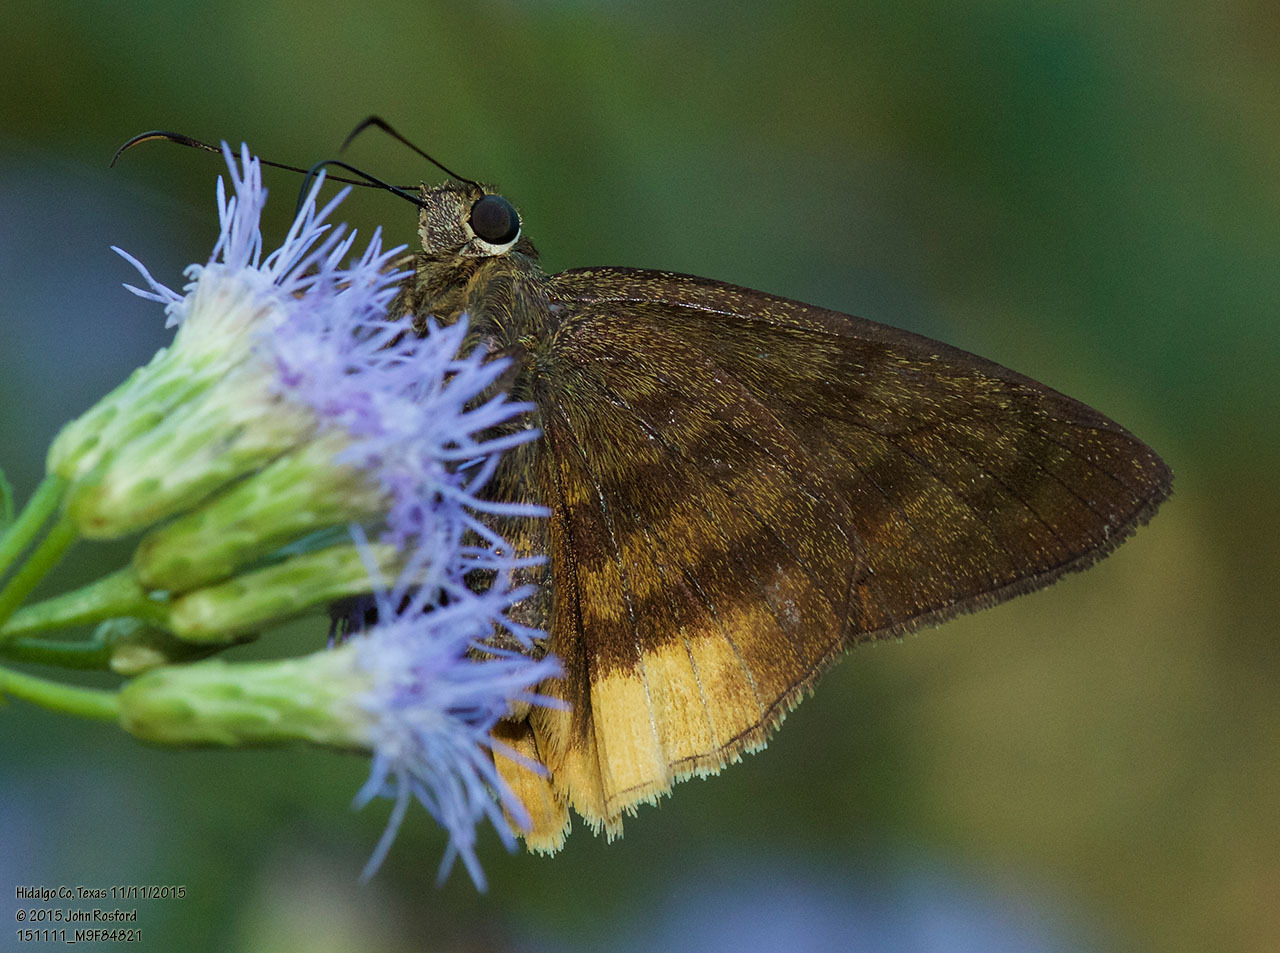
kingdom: Animalia
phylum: Arthropoda
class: Insecta
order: Lepidoptera
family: Hesperiidae
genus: Astraptes
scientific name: Astraptes anaphus
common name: Yellow-tipped flasher
